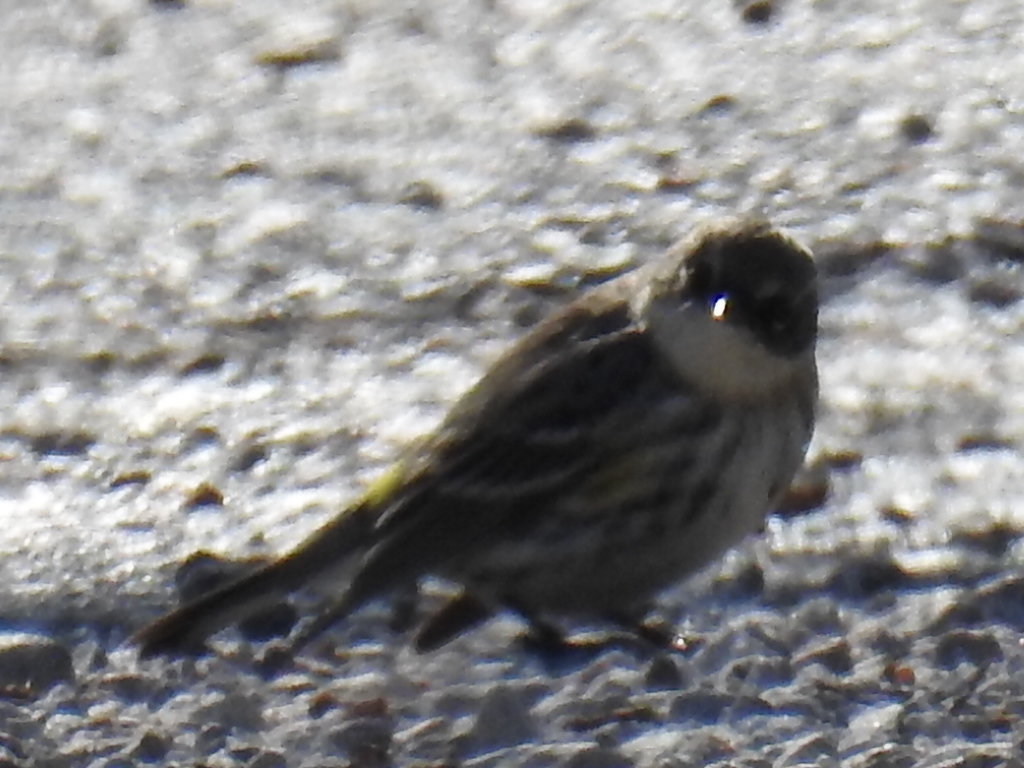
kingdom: Animalia
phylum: Chordata
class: Aves
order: Passeriformes
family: Parulidae
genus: Setophaga
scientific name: Setophaga coronata
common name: Myrtle warbler
